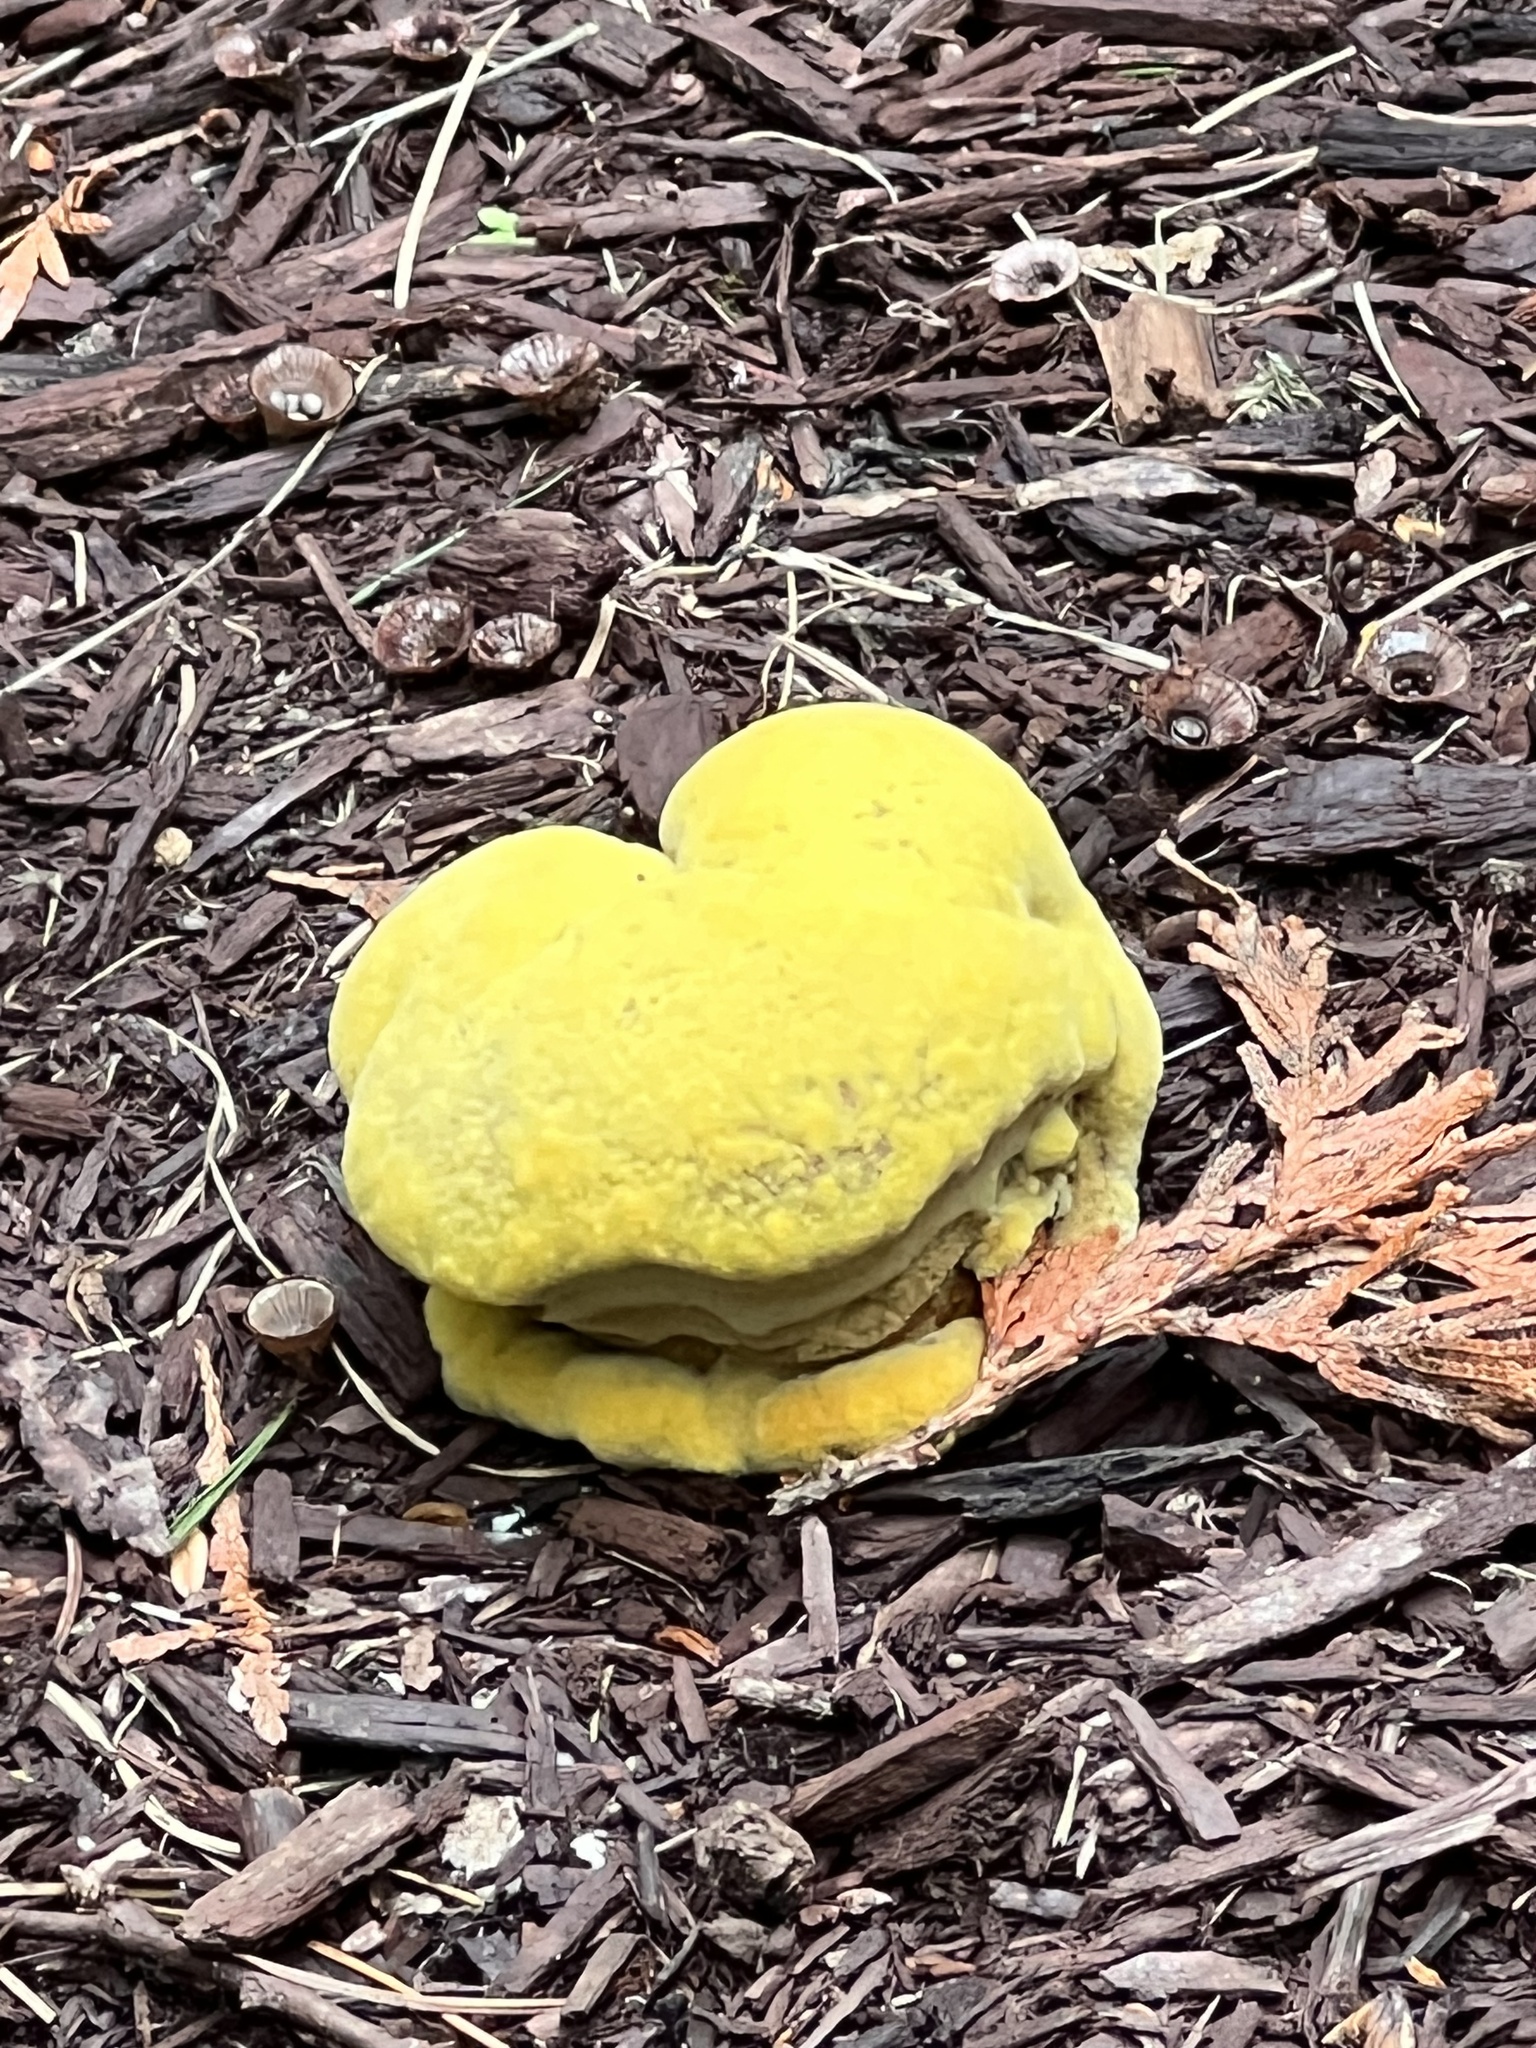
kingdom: Fungi
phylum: Basidiomycota
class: Agaricomycetes
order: Polyporales
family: Laetiporaceae
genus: Phaeolus
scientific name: Phaeolus schweinitzii
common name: Dyer's mazegill
